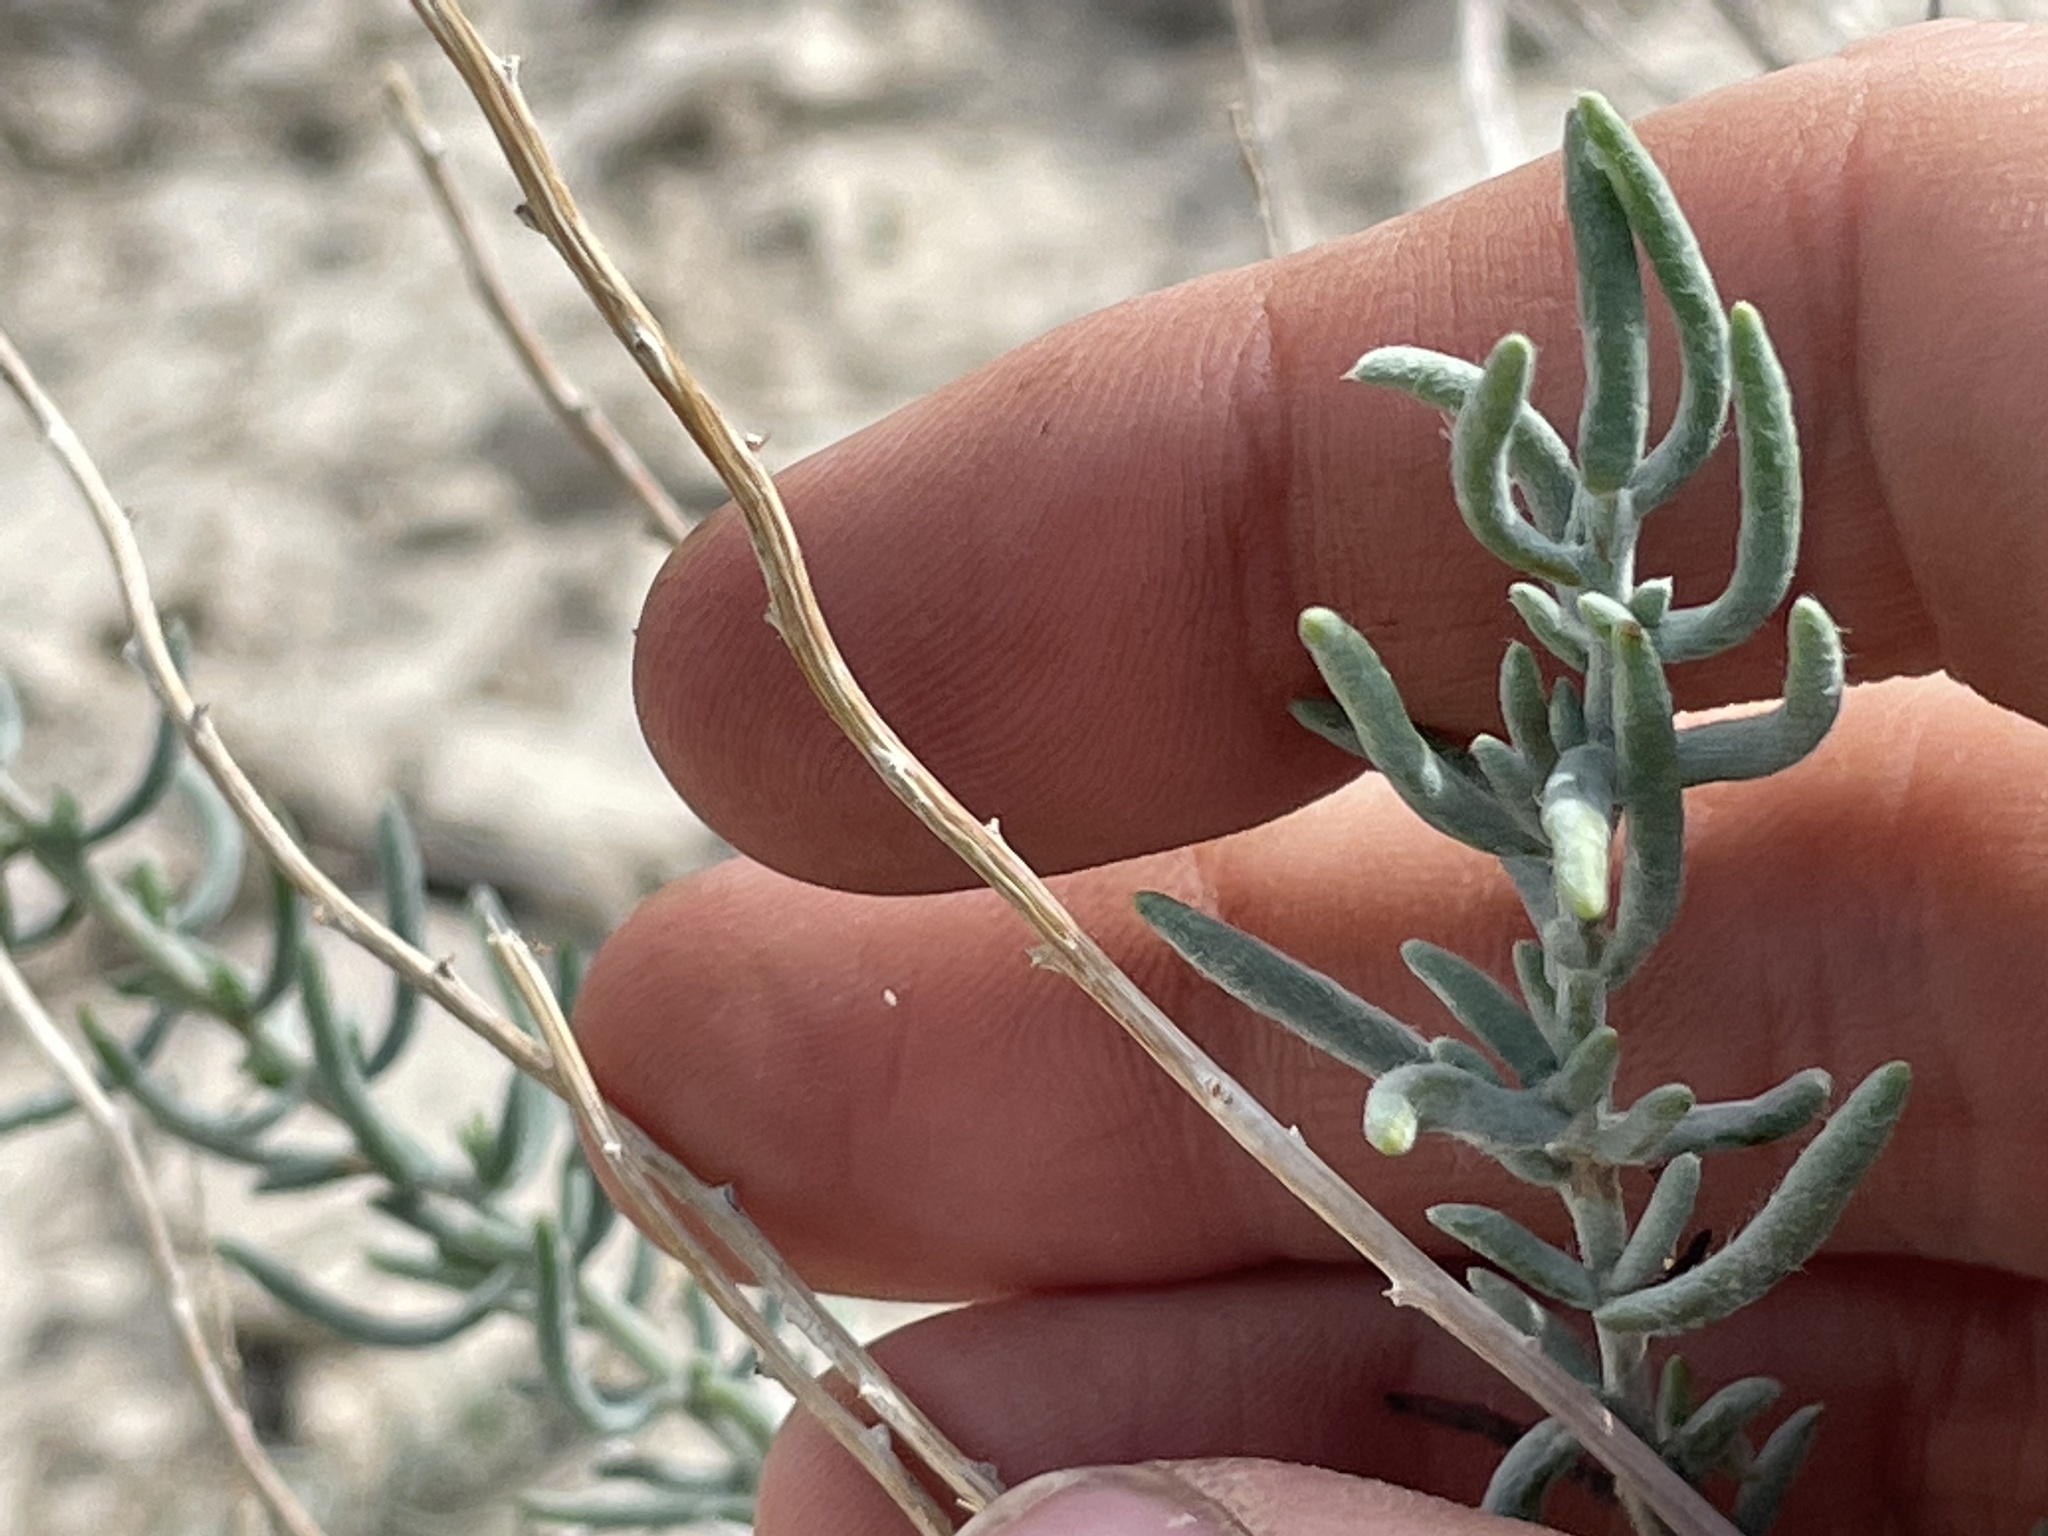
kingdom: Plantae
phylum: Tracheophyta
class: Magnoliopsida
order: Caryophyllales
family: Amaranthaceae
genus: Neokochia
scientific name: Neokochia americana
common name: Perennial summer-cypress
